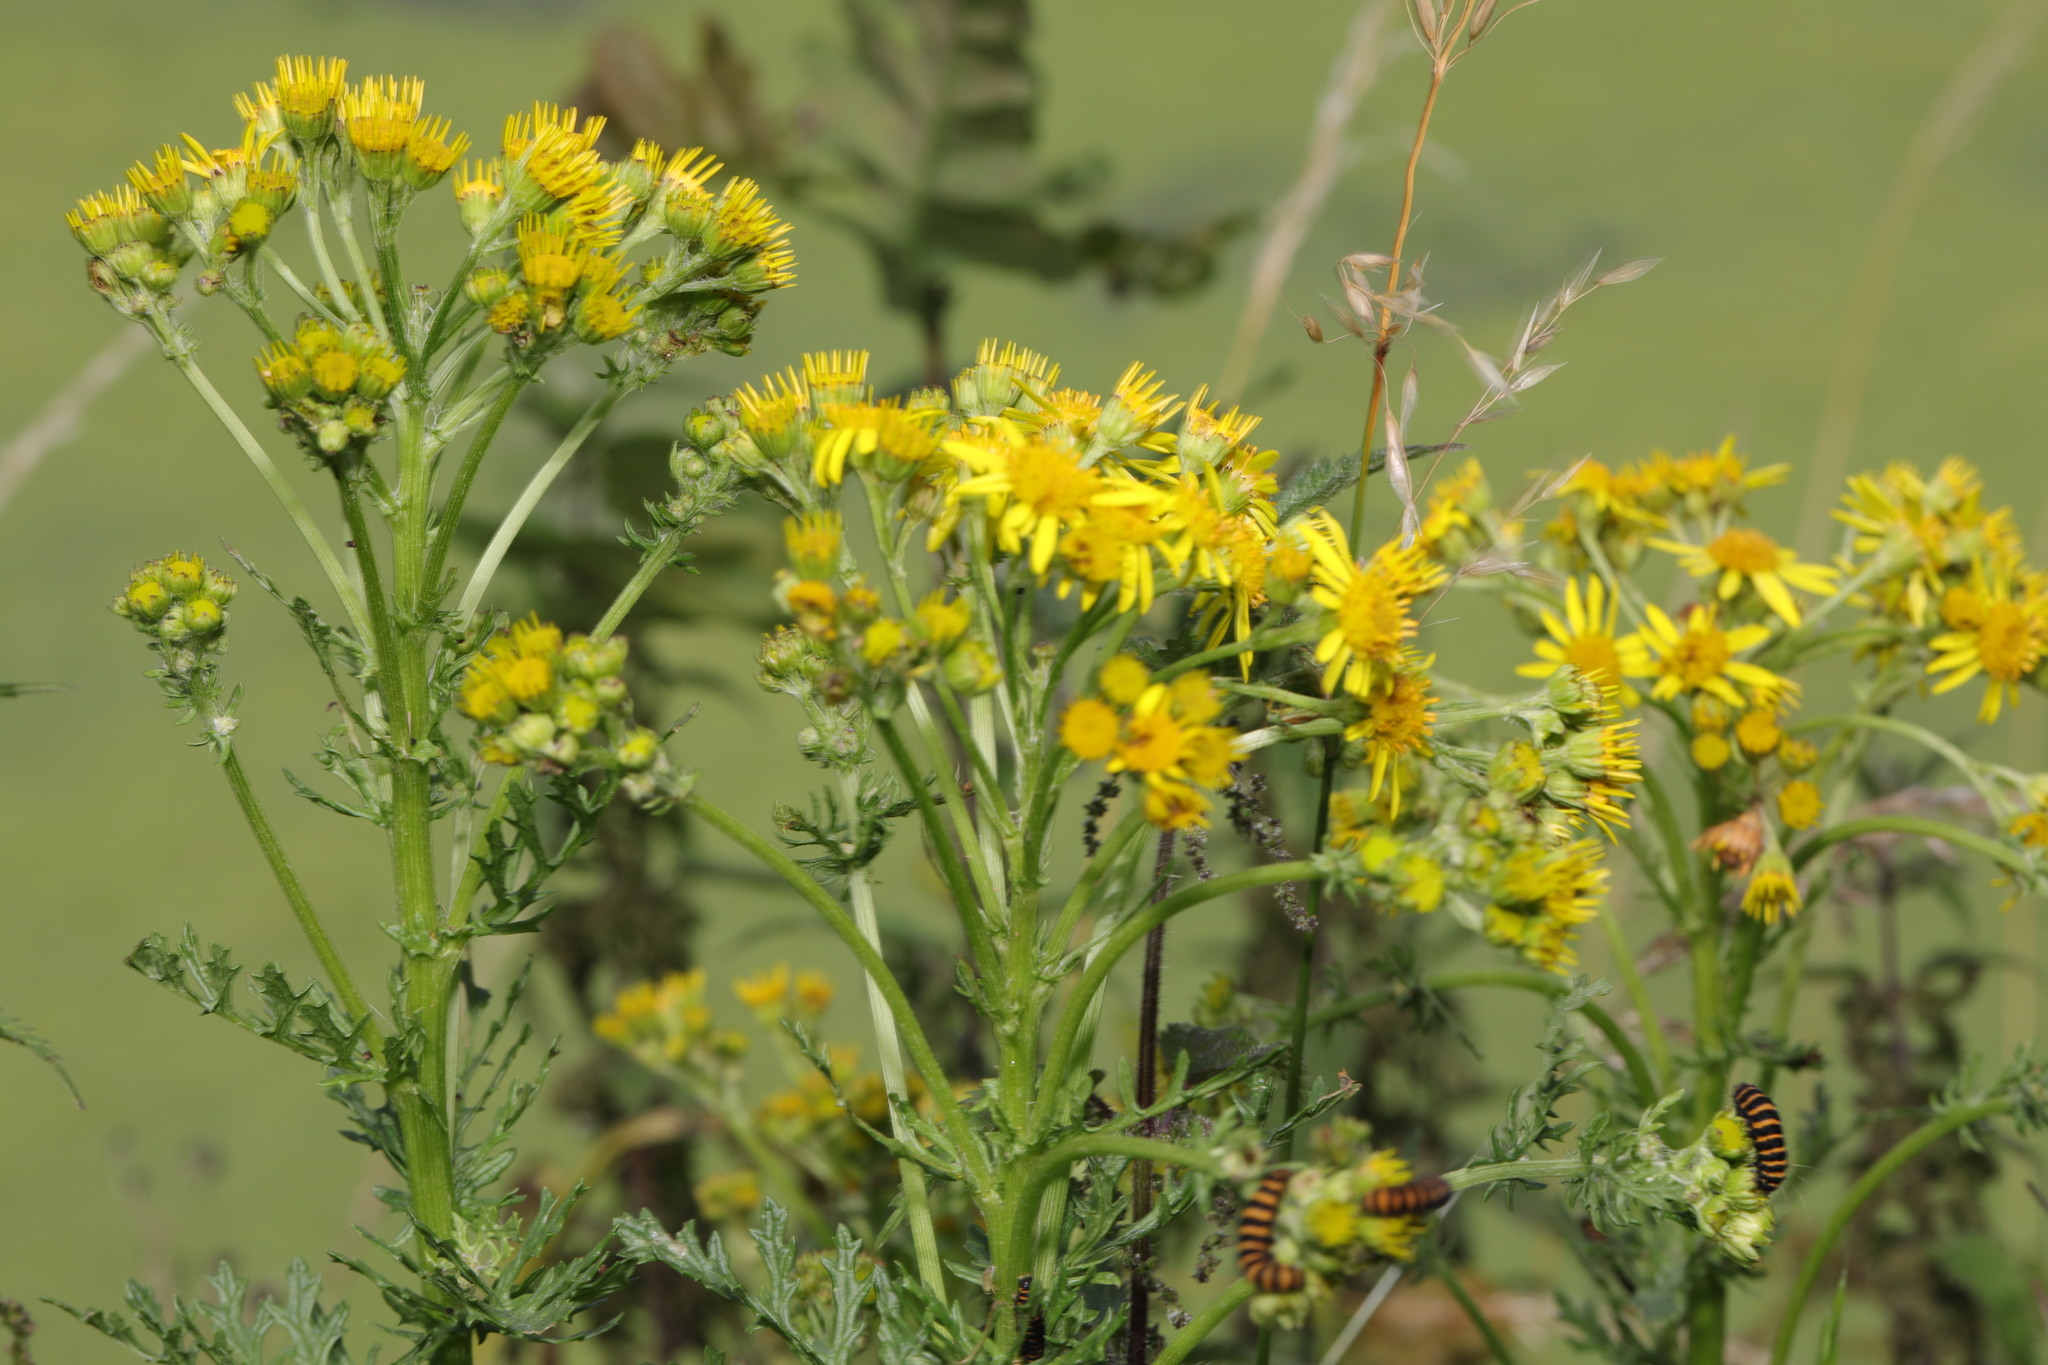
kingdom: Plantae
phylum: Tracheophyta
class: Magnoliopsida
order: Asterales
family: Asteraceae
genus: Jacobaea
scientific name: Jacobaea vulgaris
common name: Stinking willie
